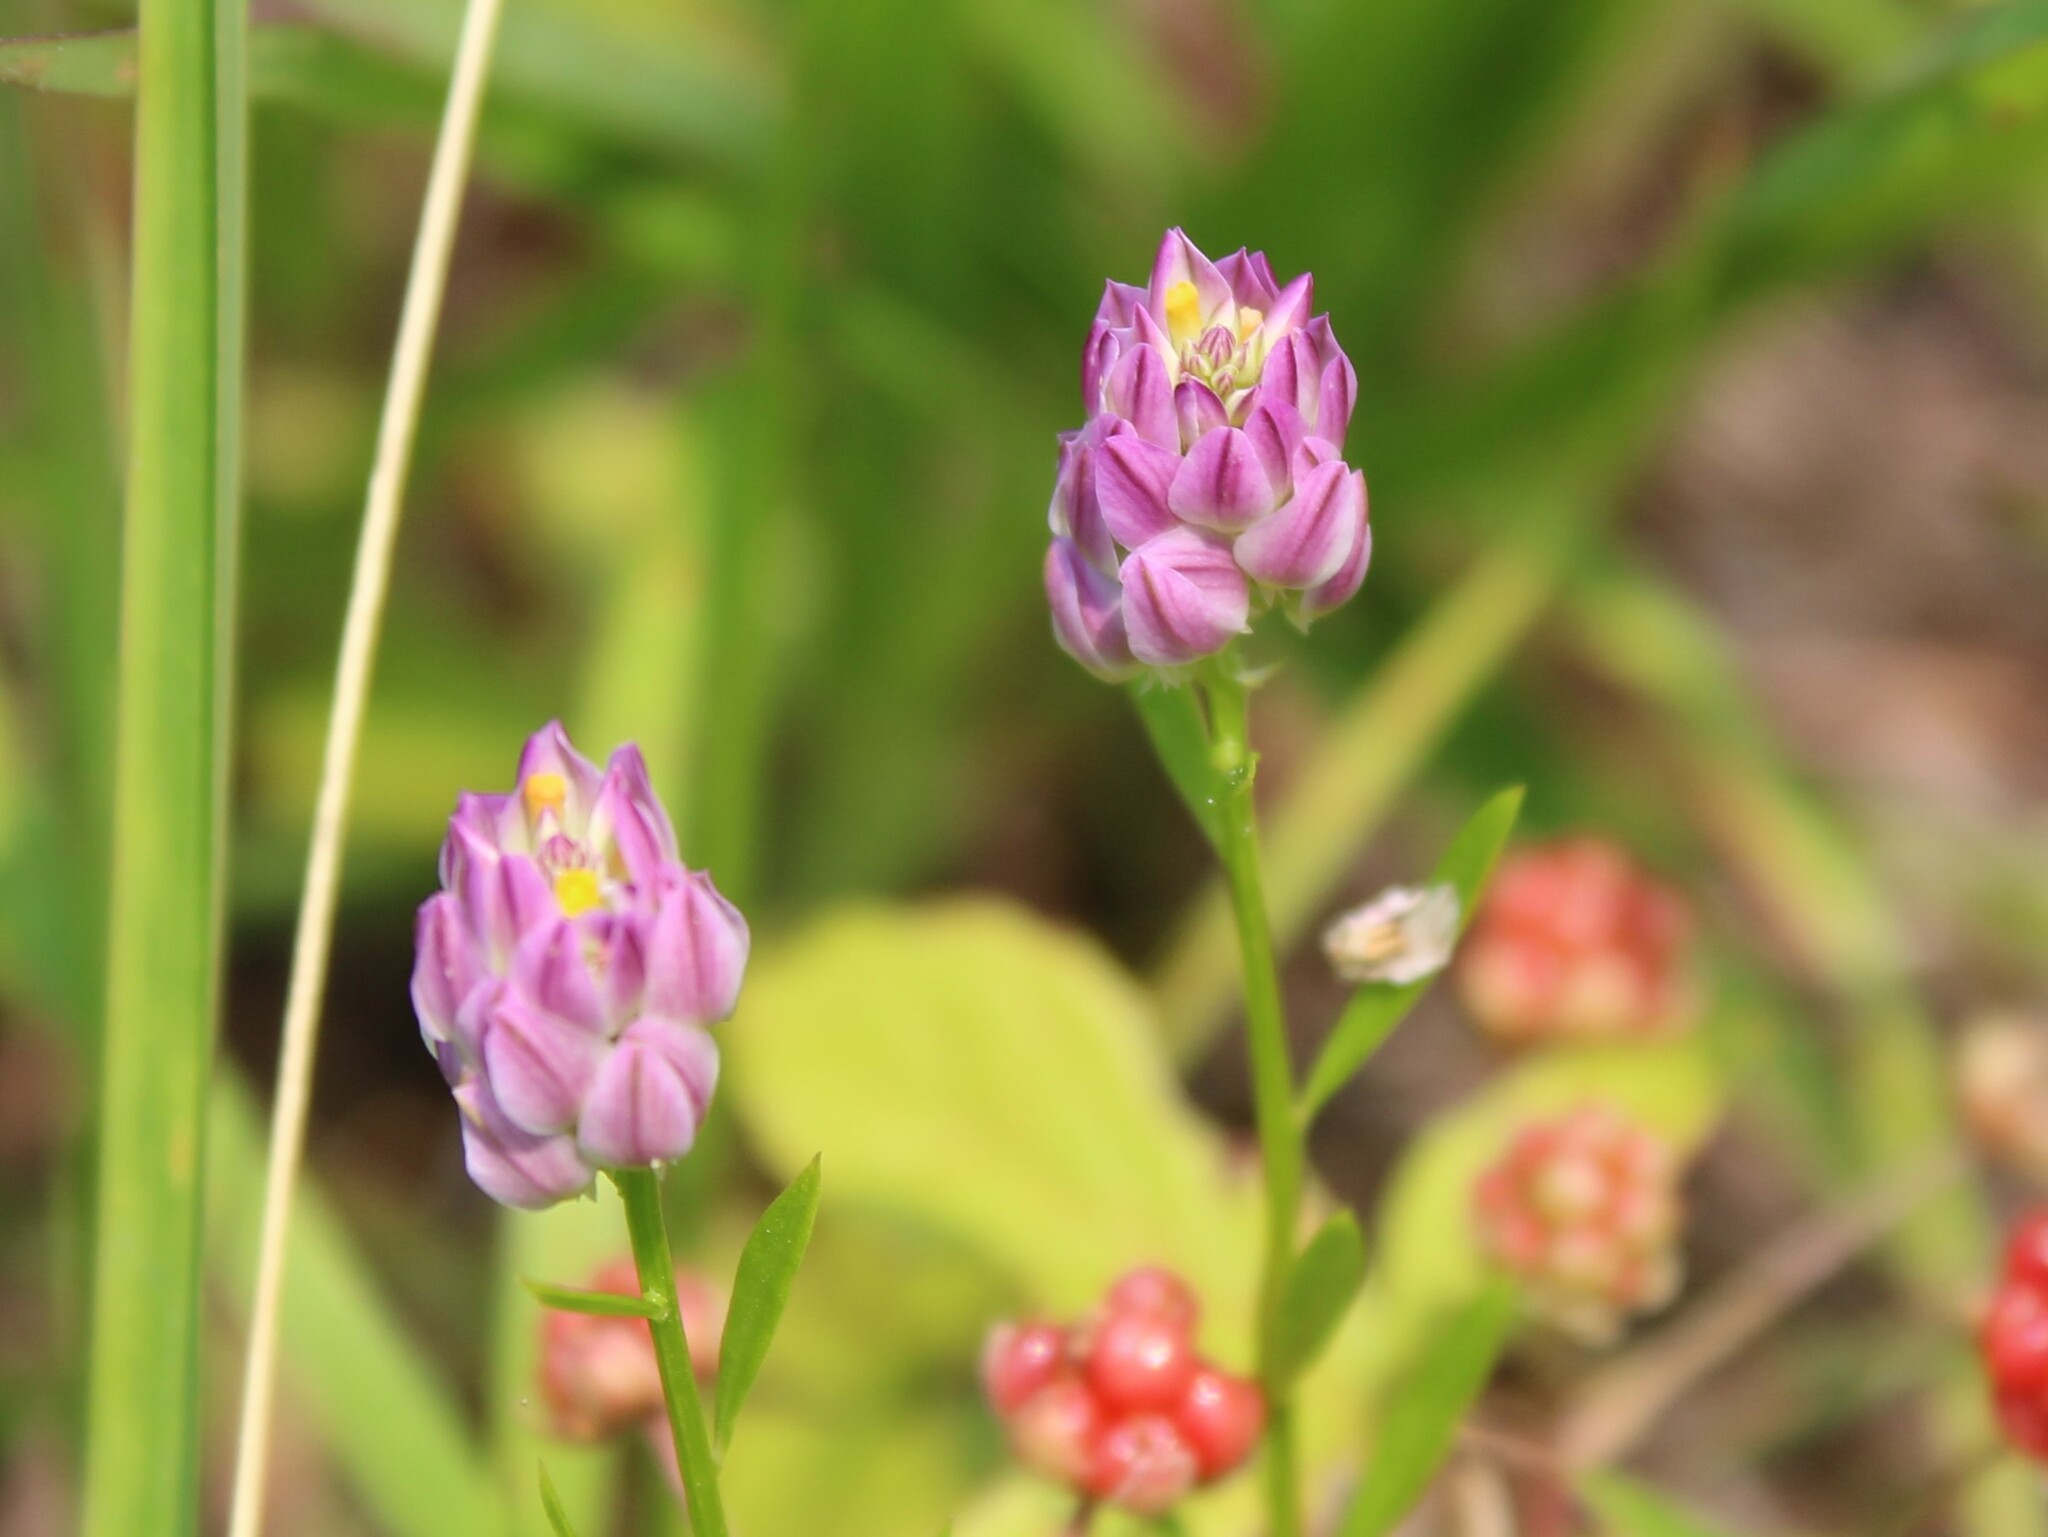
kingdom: Plantae
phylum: Tracheophyta
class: Magnoliopsida
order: Fabales
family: Polygalaceae
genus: Polygala
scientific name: Polygala sanguinea
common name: Blood milkwort
